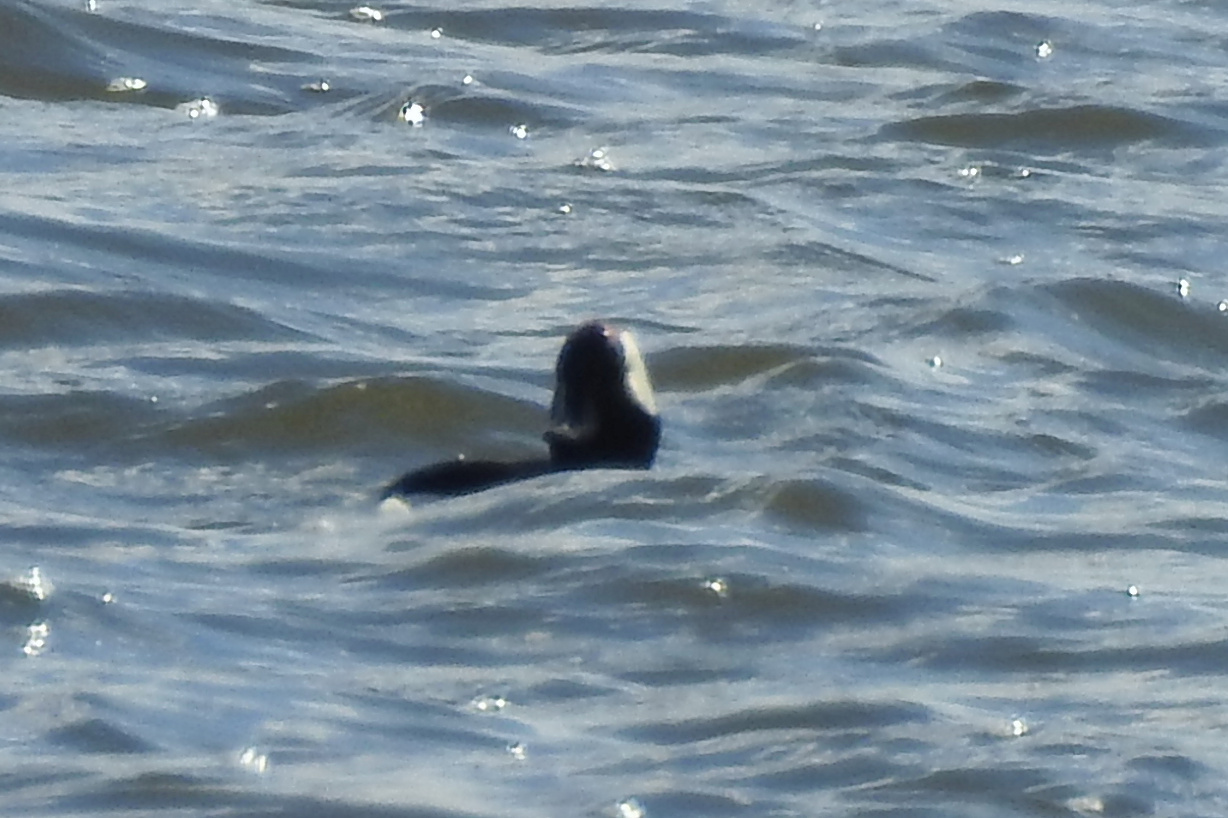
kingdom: Animalia
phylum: Chordata
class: Aves
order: Anseriformes
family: Anatidae
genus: Bucephala
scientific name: Bucephala albeola
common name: Bufflehead
